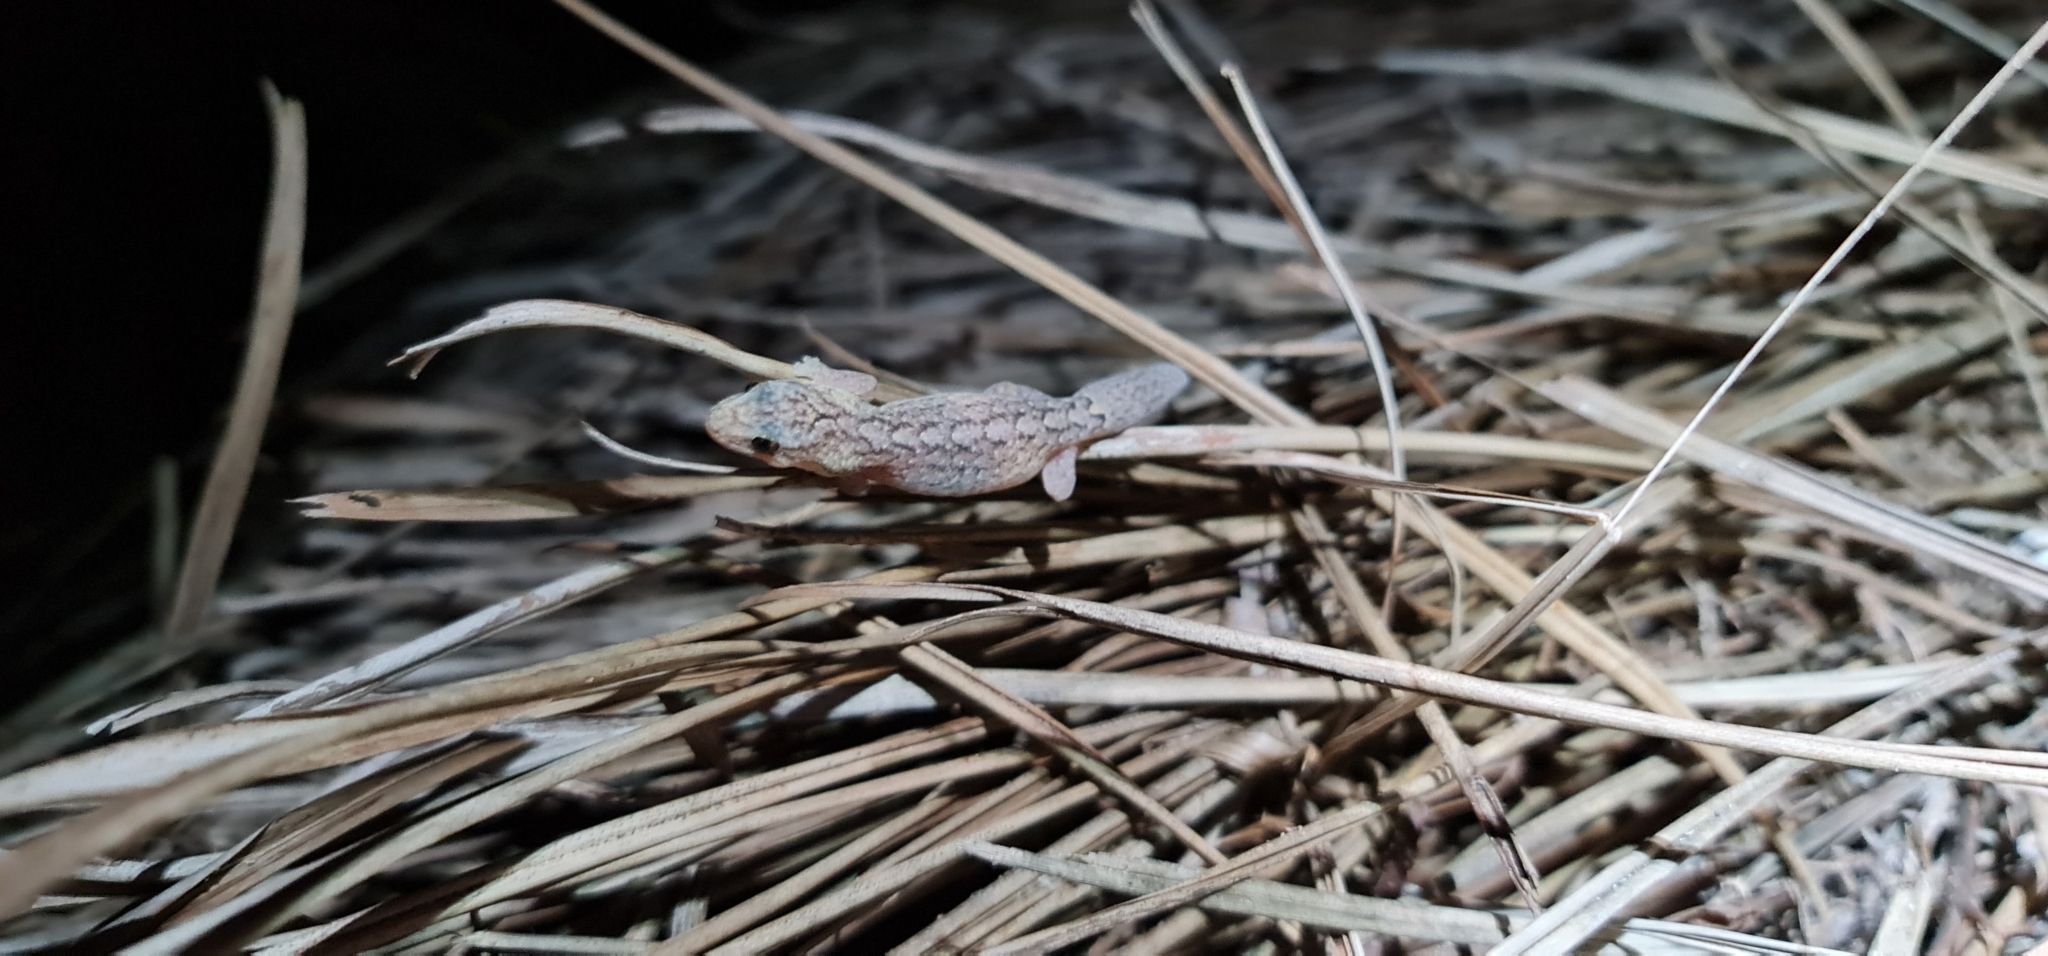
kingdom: Animalia
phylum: Chordata
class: Squamata
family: Gekkonidae
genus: Christinus
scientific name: Christinus marmoratus
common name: Marbled gecko
